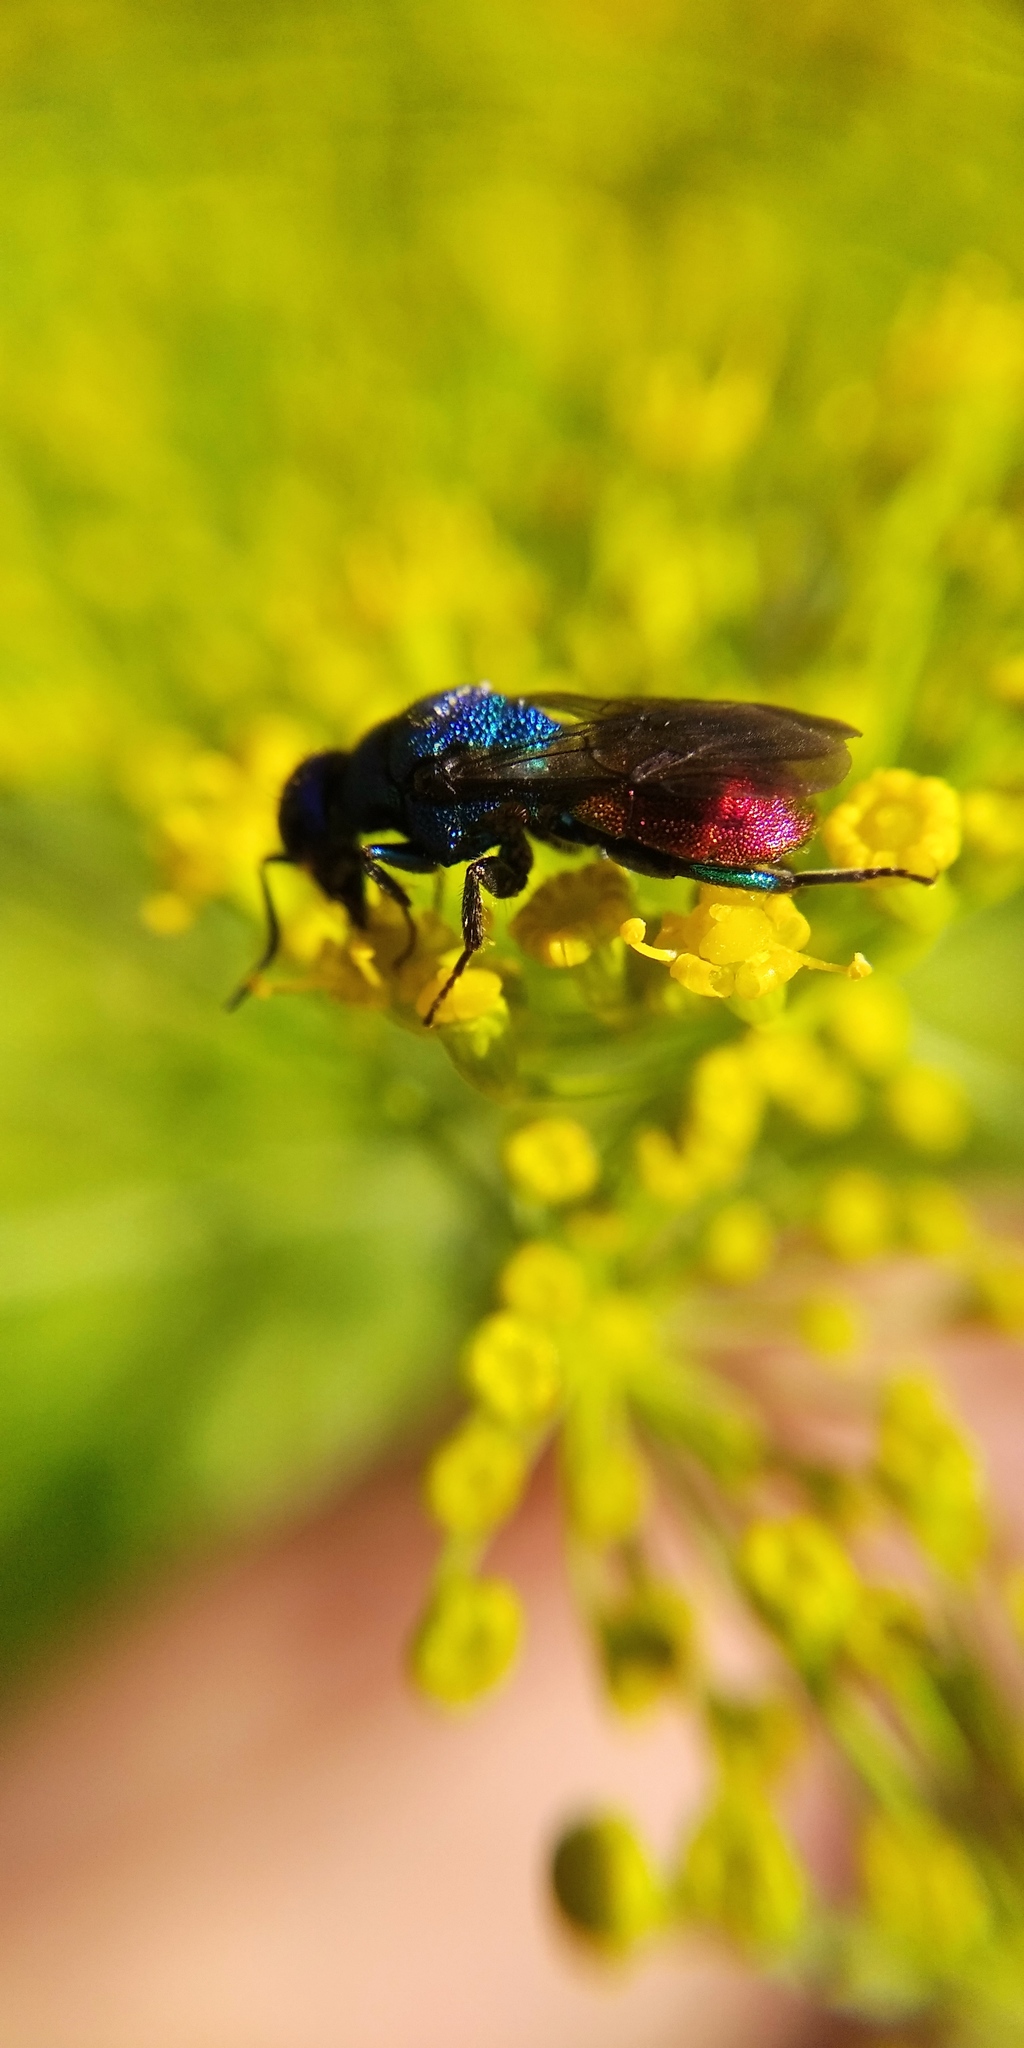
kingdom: Animalia
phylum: Arthropoda
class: Insecta
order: Hymenoptera
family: Chrysididae
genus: Holopyga
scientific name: Holopyga fastuosa
